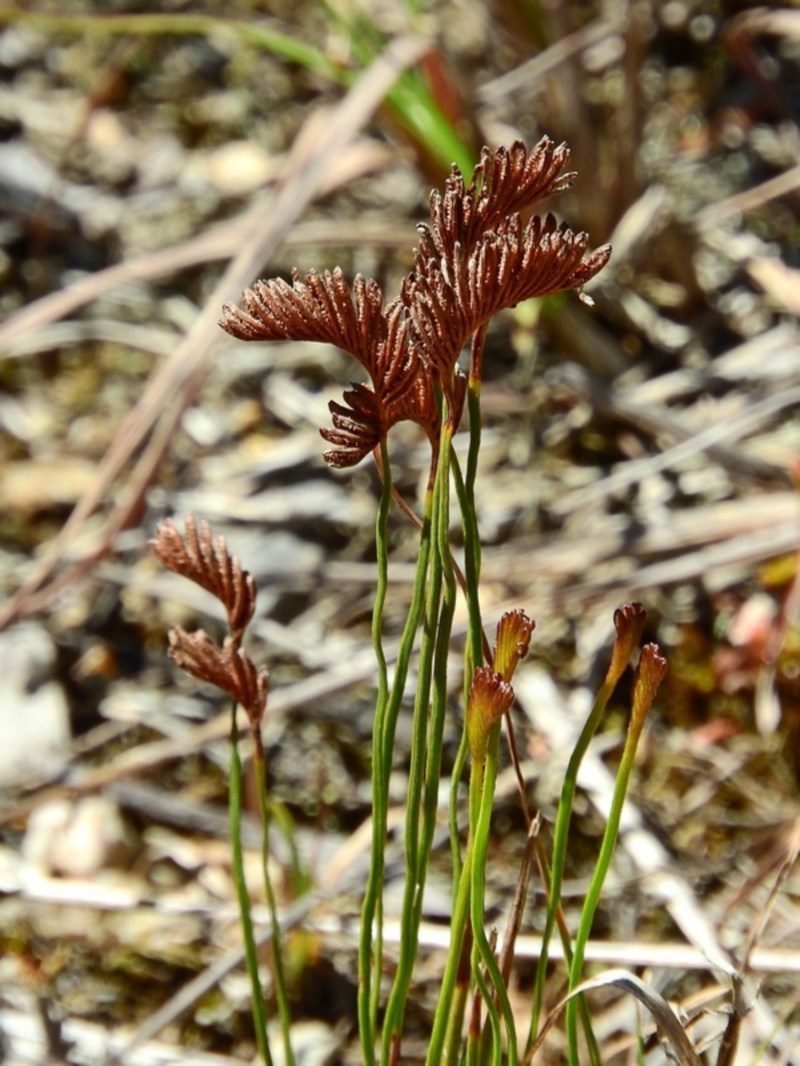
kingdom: Plantae
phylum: Tracheophyta
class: Polypodiopsida
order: Schizaeales
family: Schizaeaceae
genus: Schizaea
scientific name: Schizaea bifida
